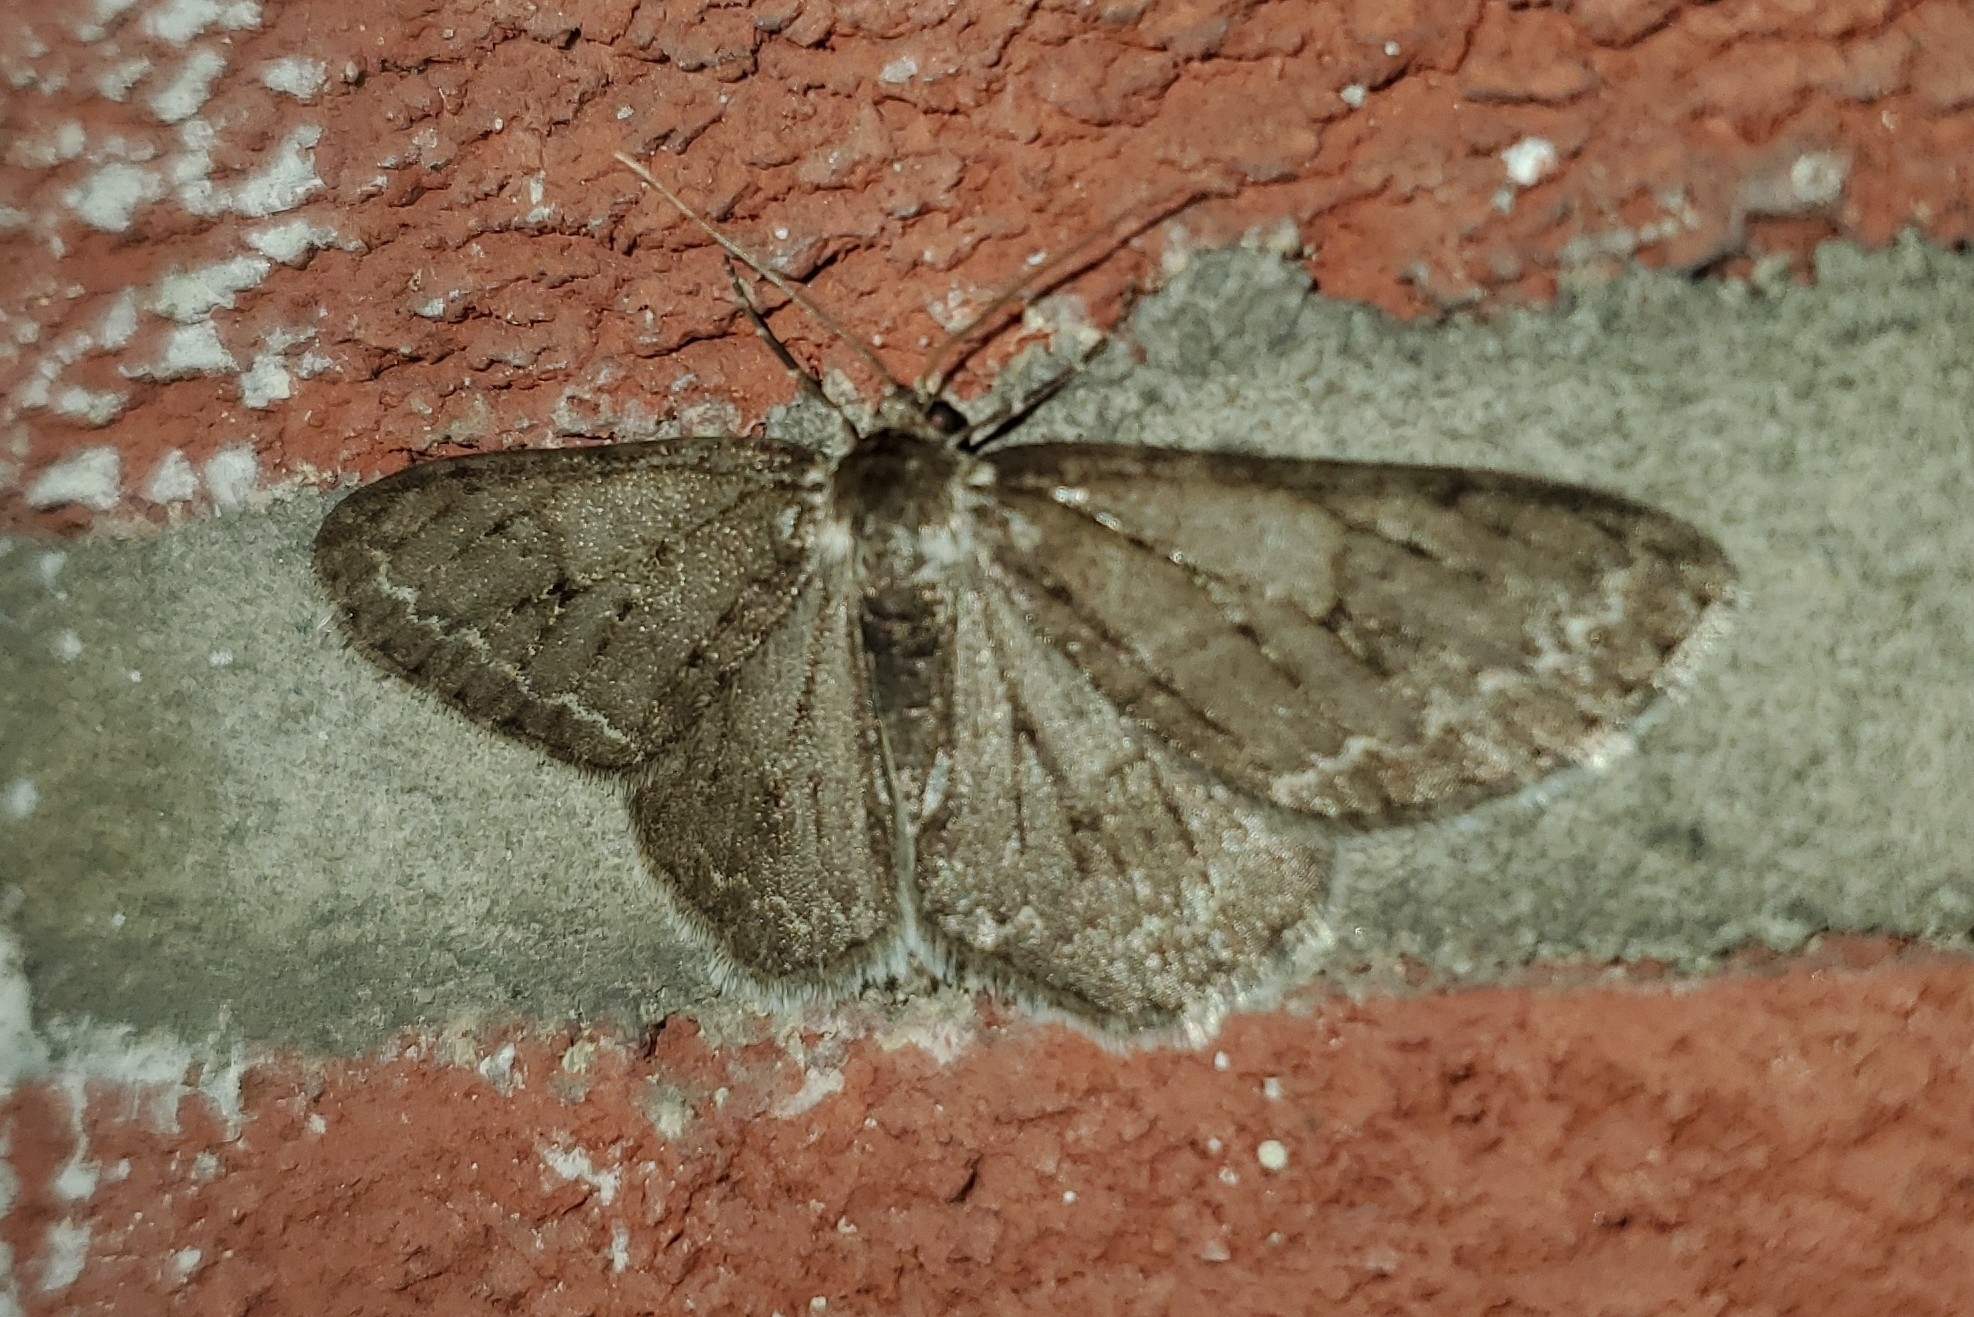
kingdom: Animalia
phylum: Arthropoda
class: Insecta
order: Lepidoptera
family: Geometridae
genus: Ectropis
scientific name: Ectropis crepuscularia
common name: Engrailed
